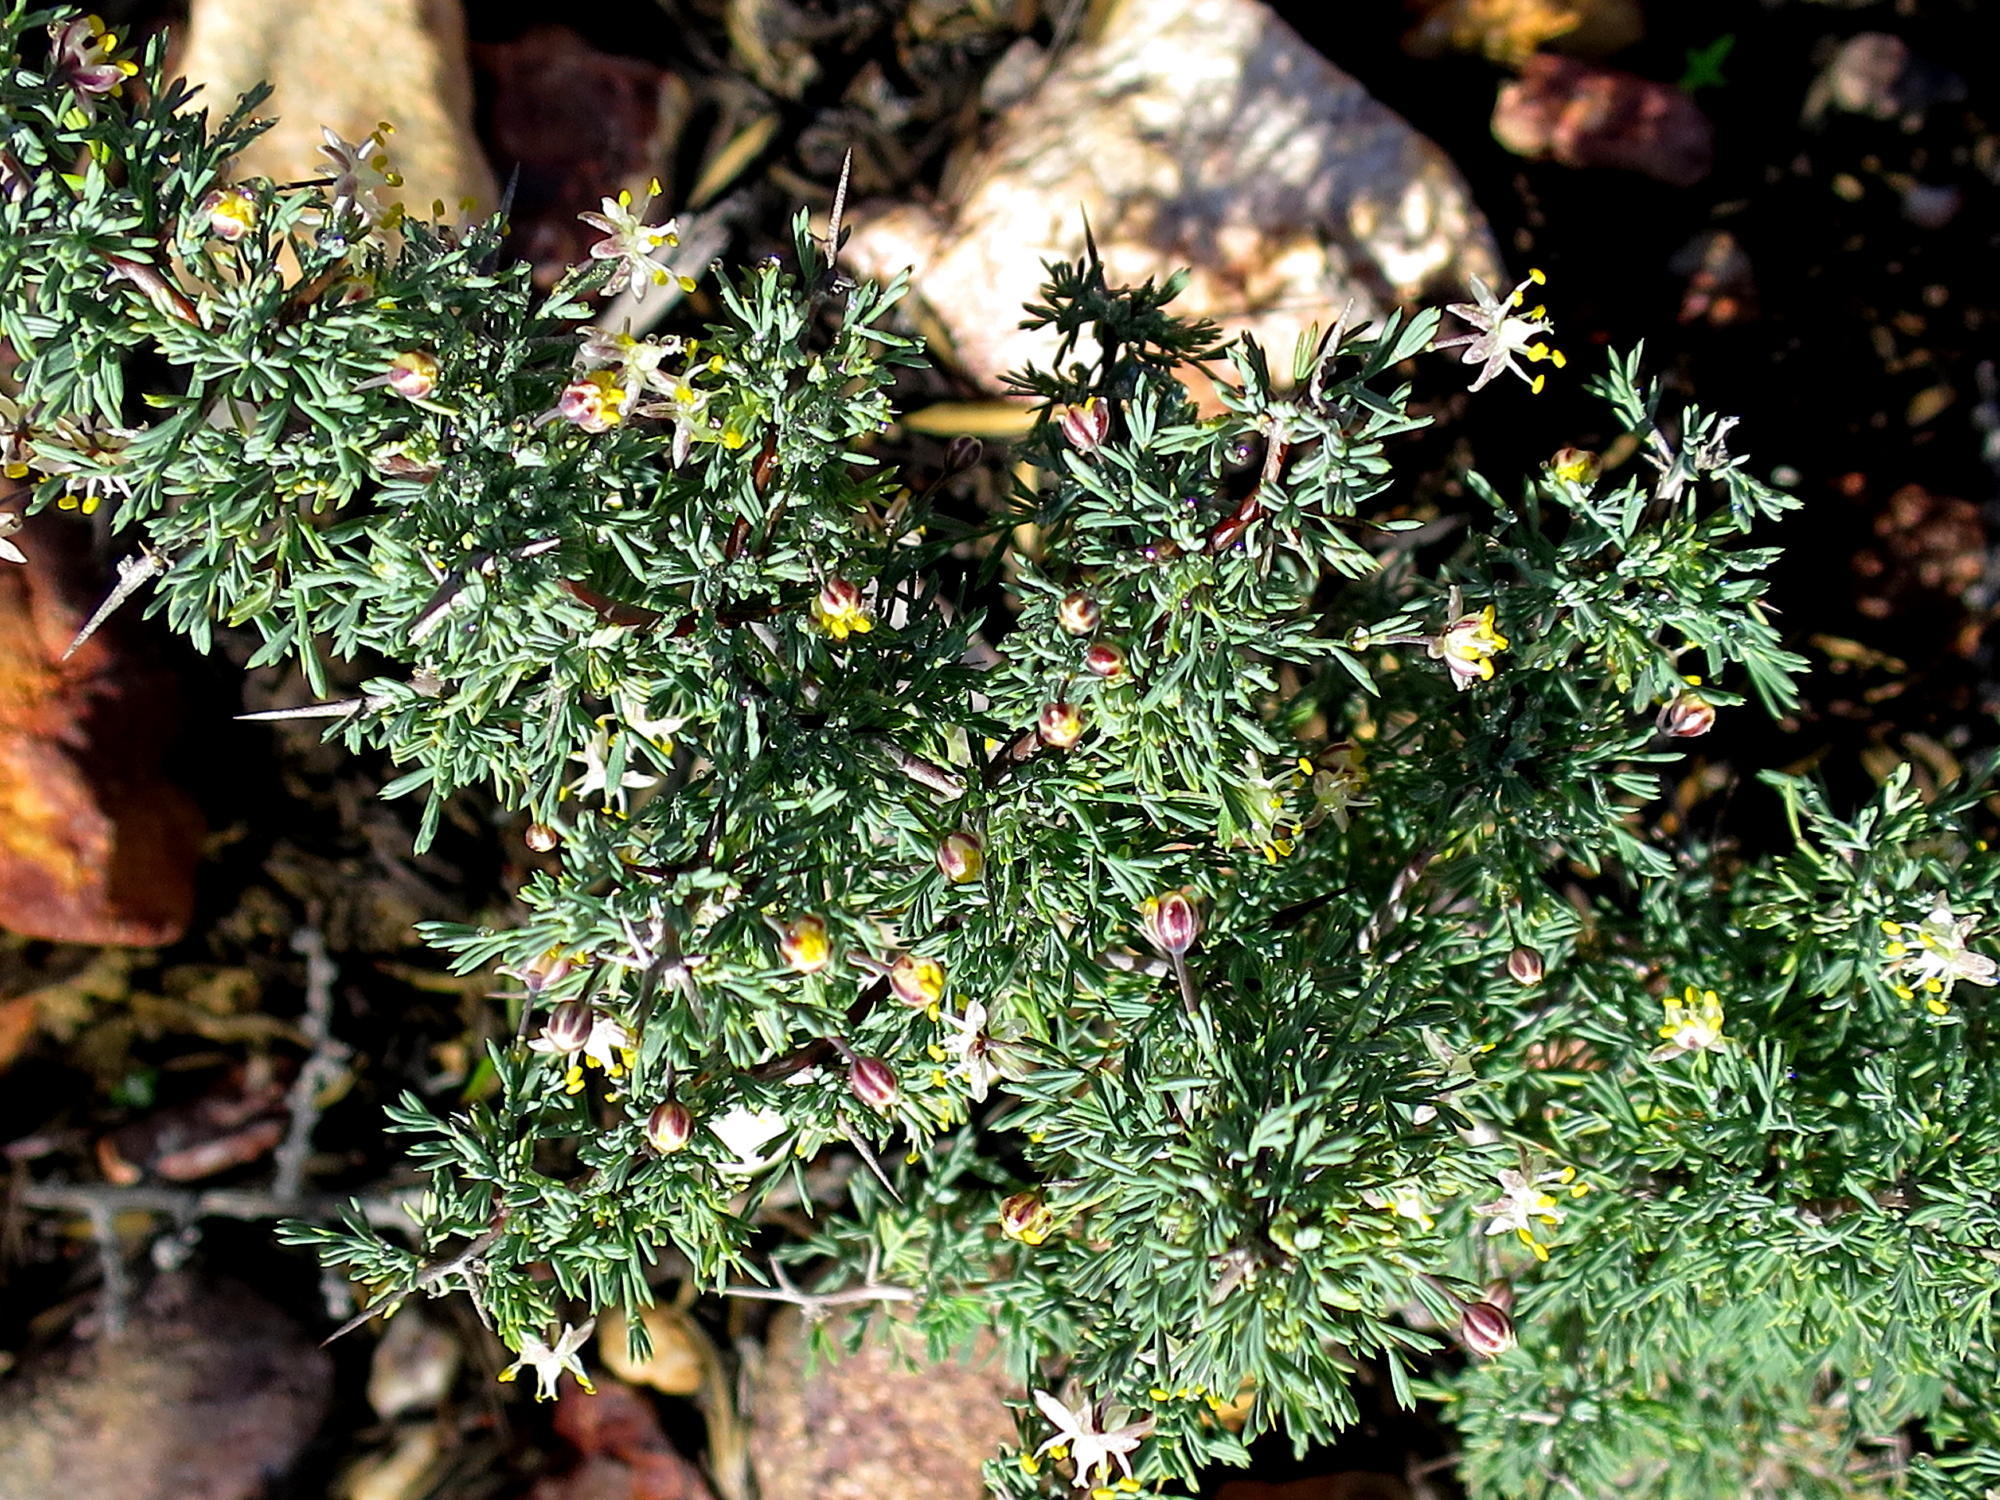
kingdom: Plantae
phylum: Tracheophyta
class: Liliopsida
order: Asparagales
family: Asparagaceae
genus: Asparagus
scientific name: Asparagus capensis
